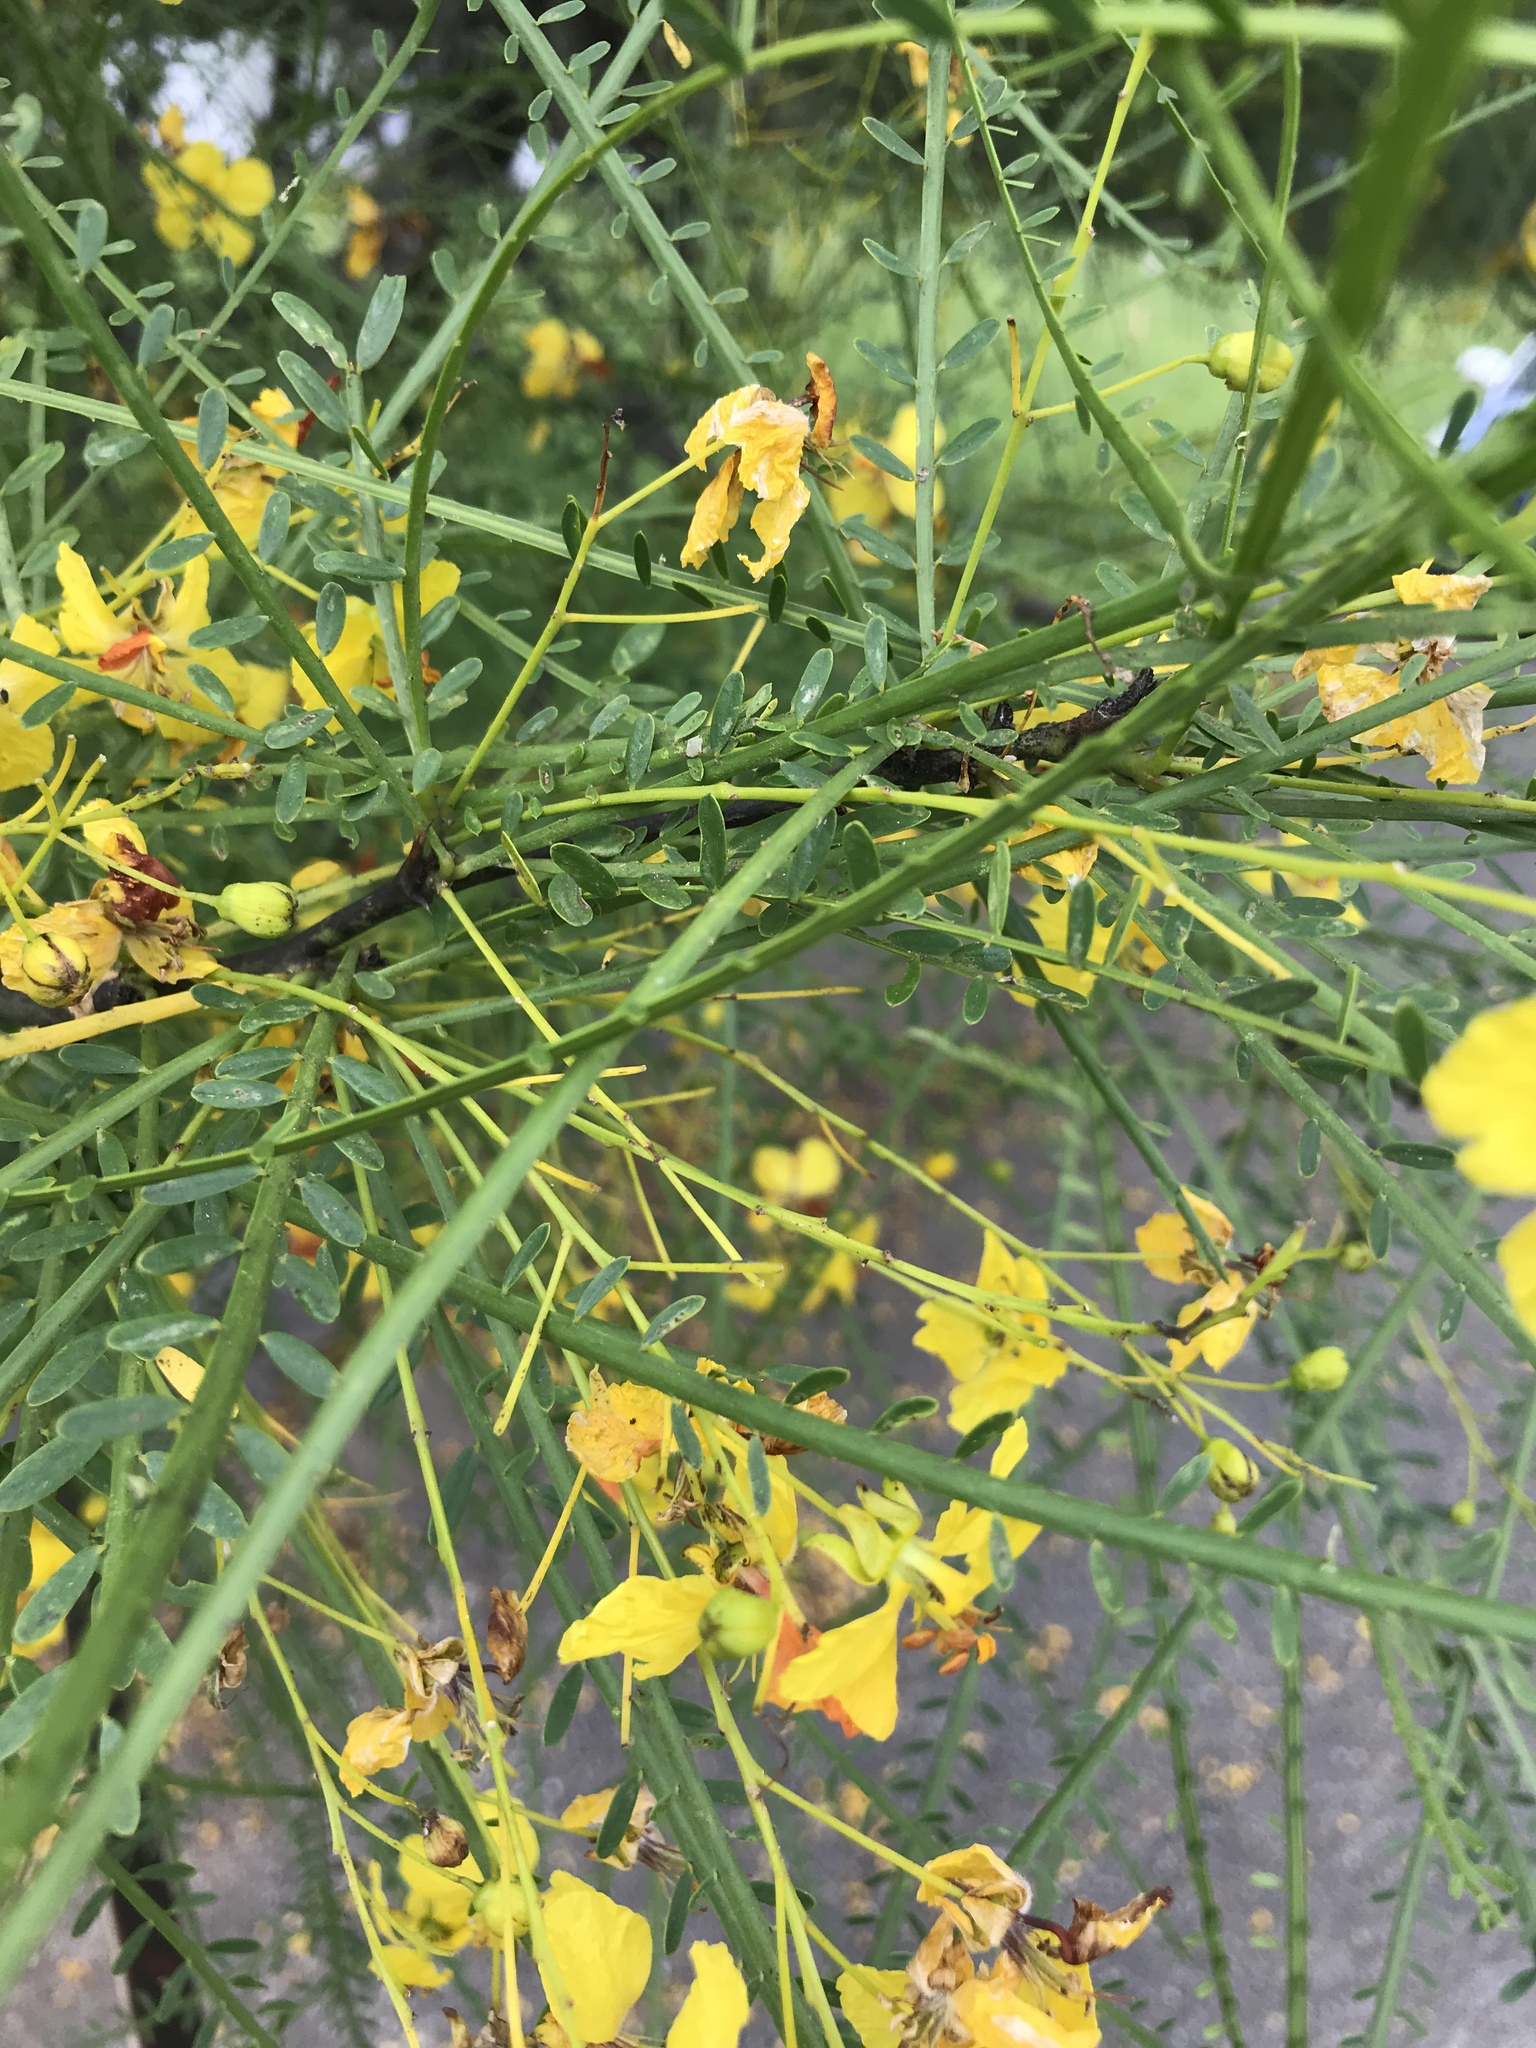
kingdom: Plantae
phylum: Tracheophyta
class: Magnoliopsida
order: Fabales
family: Fabaceae
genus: Parkinsonia
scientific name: Parkinsonia aculeata
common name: Jerusalem thorn
